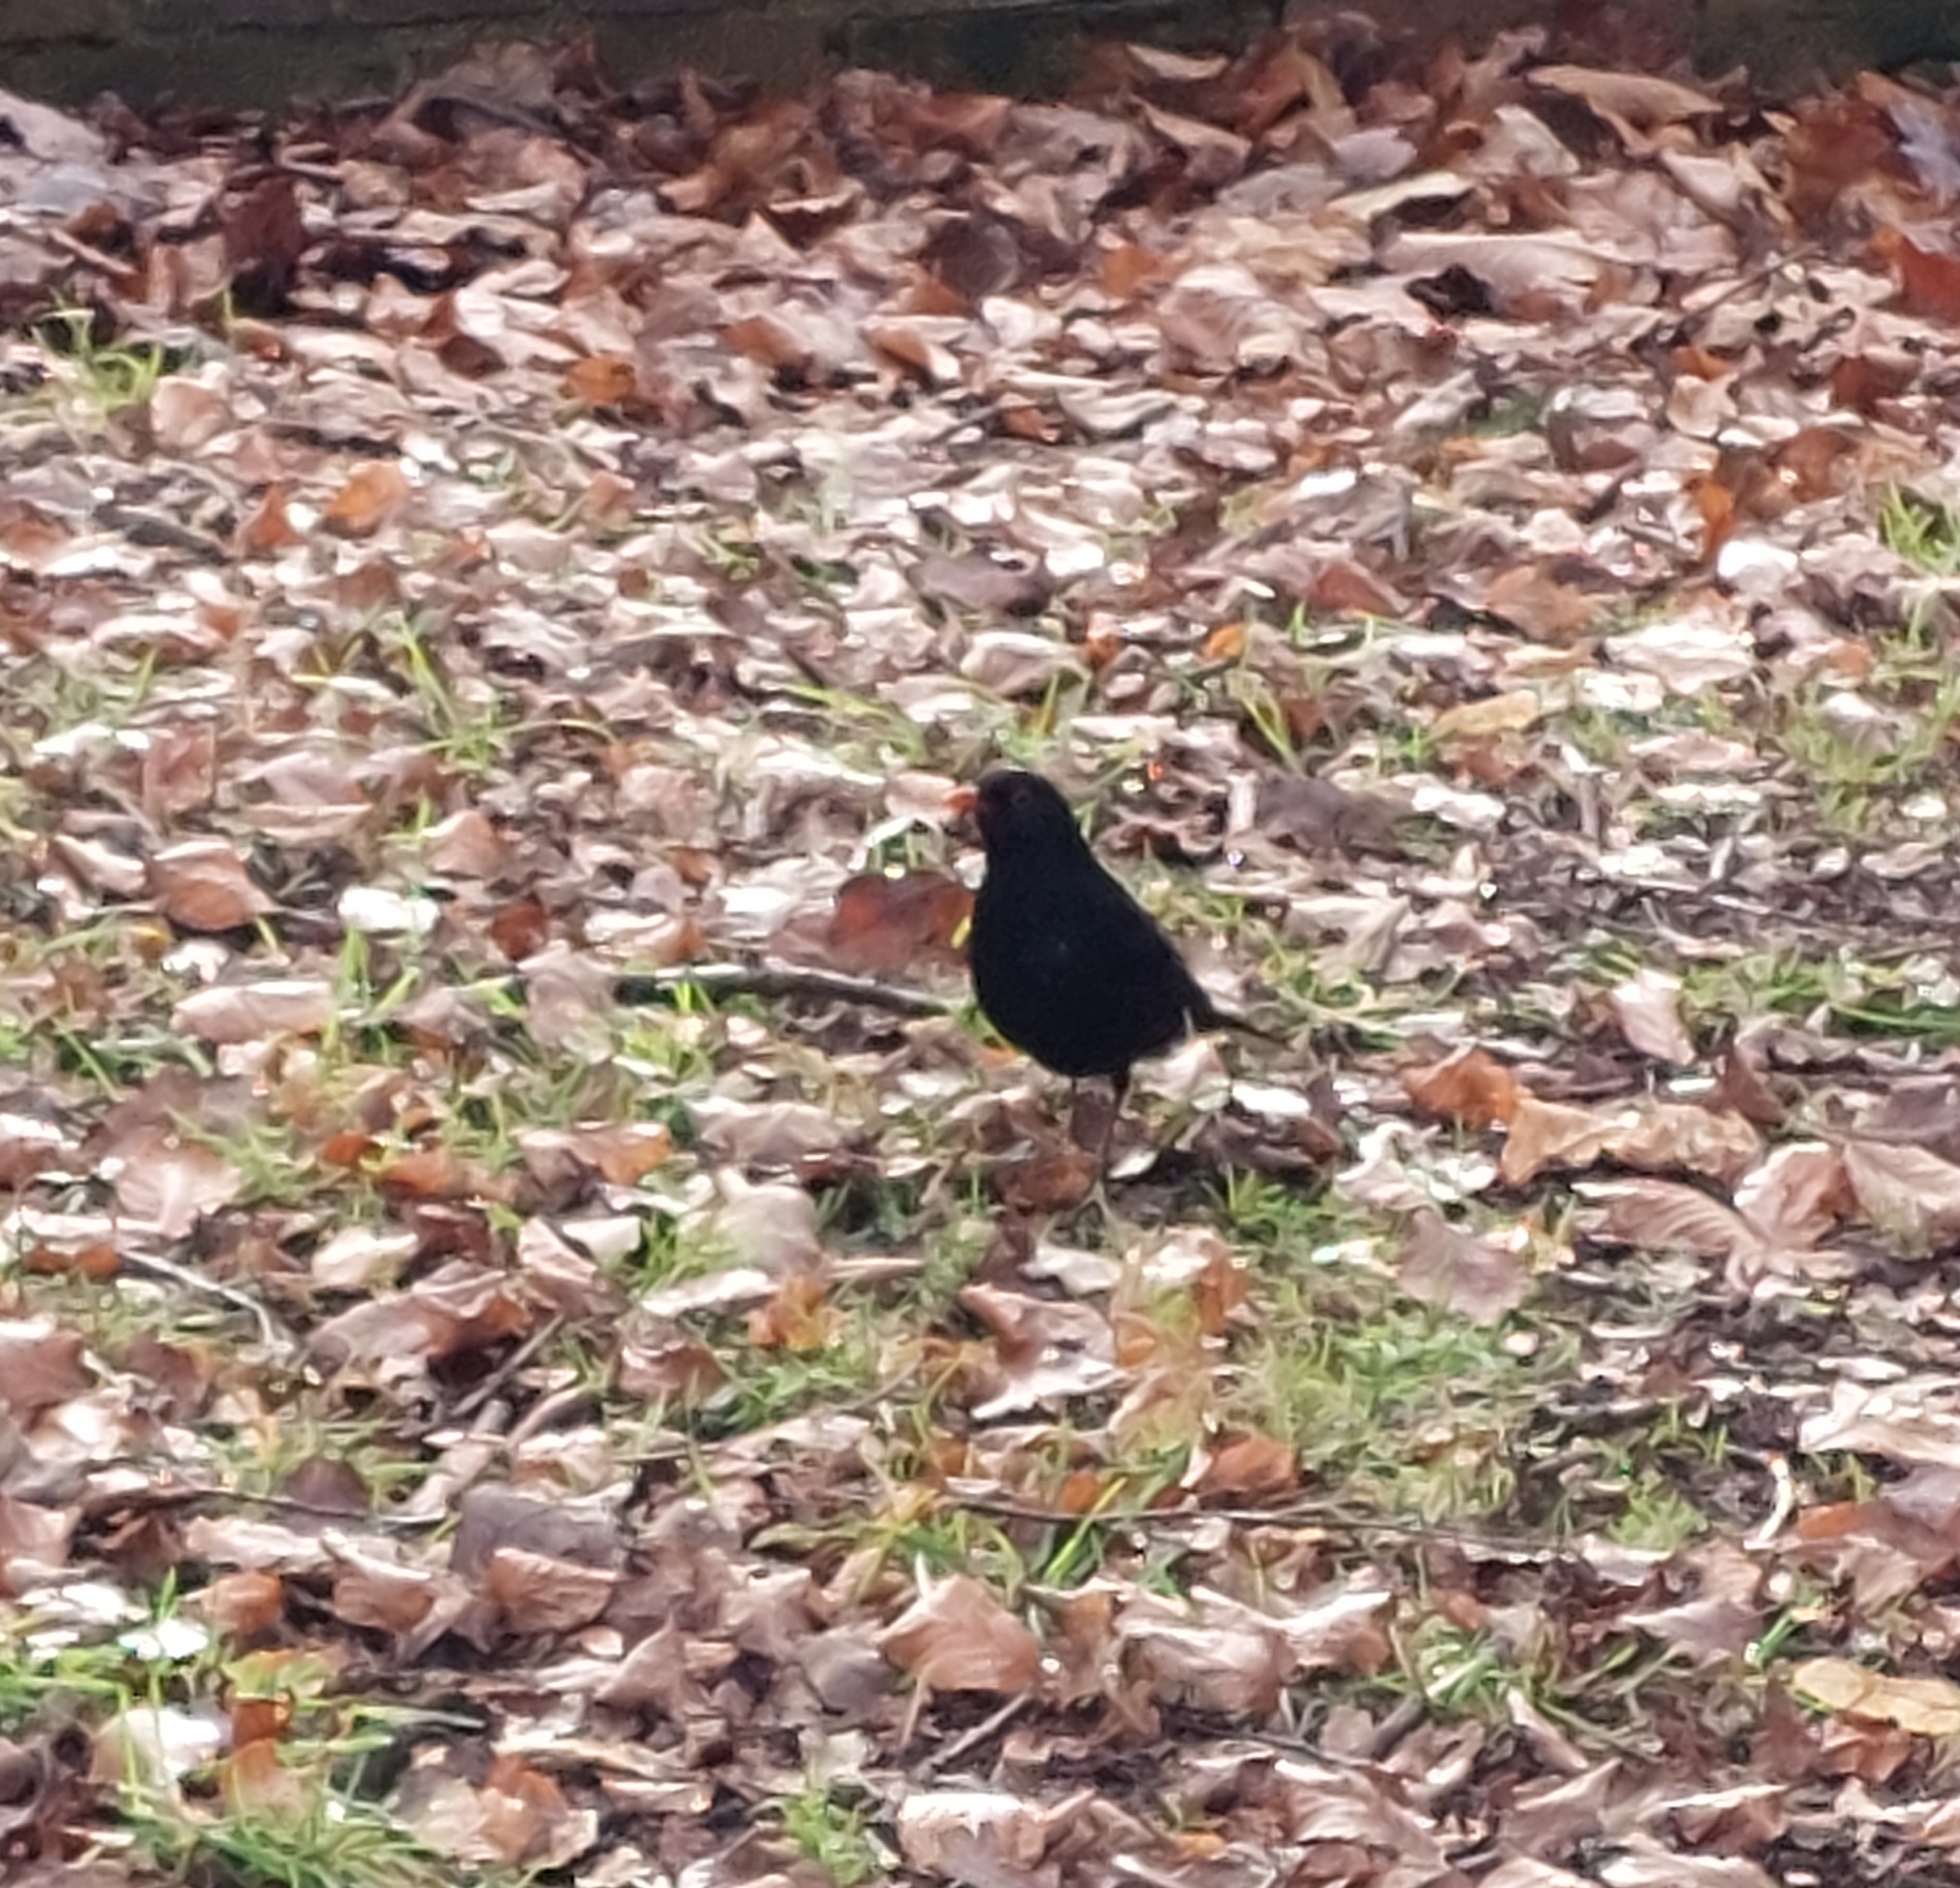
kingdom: Animalia
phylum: Chordata
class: Aves
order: Passeriformes
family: Turdidae
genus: Turdus
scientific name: Turdus merula
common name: Common blackbird
